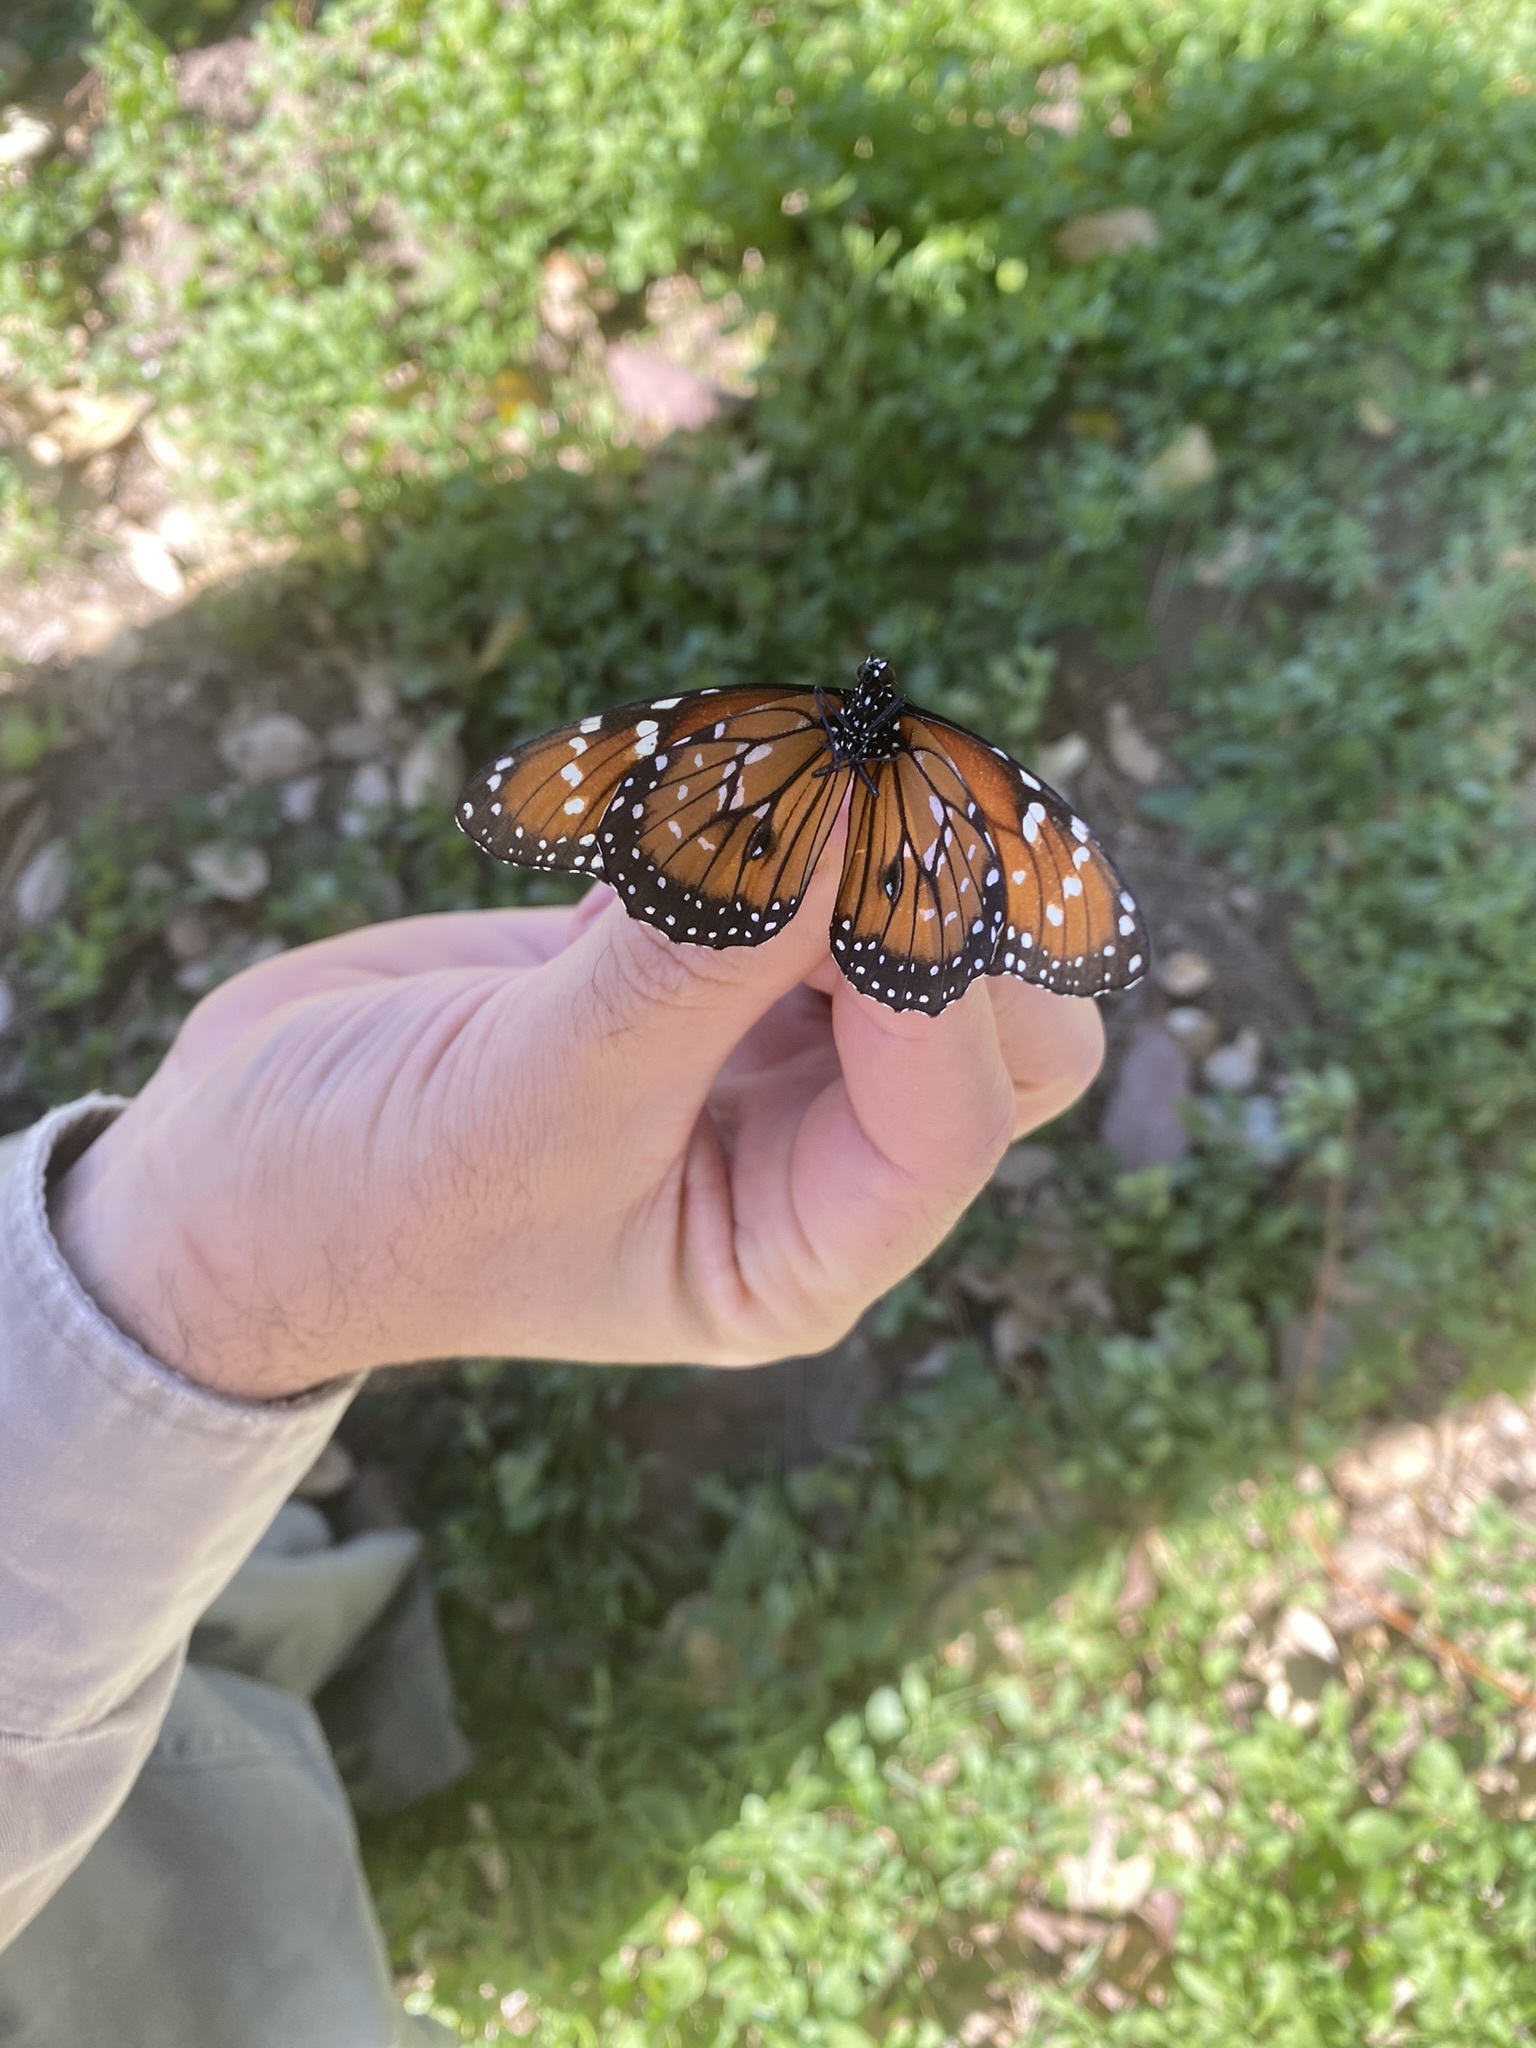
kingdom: Animalia
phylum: Arthropoda
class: Insecta
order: Lepidoptera
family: Nymphalidae
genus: Danaus
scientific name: Danaus eresimus
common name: Soldier
